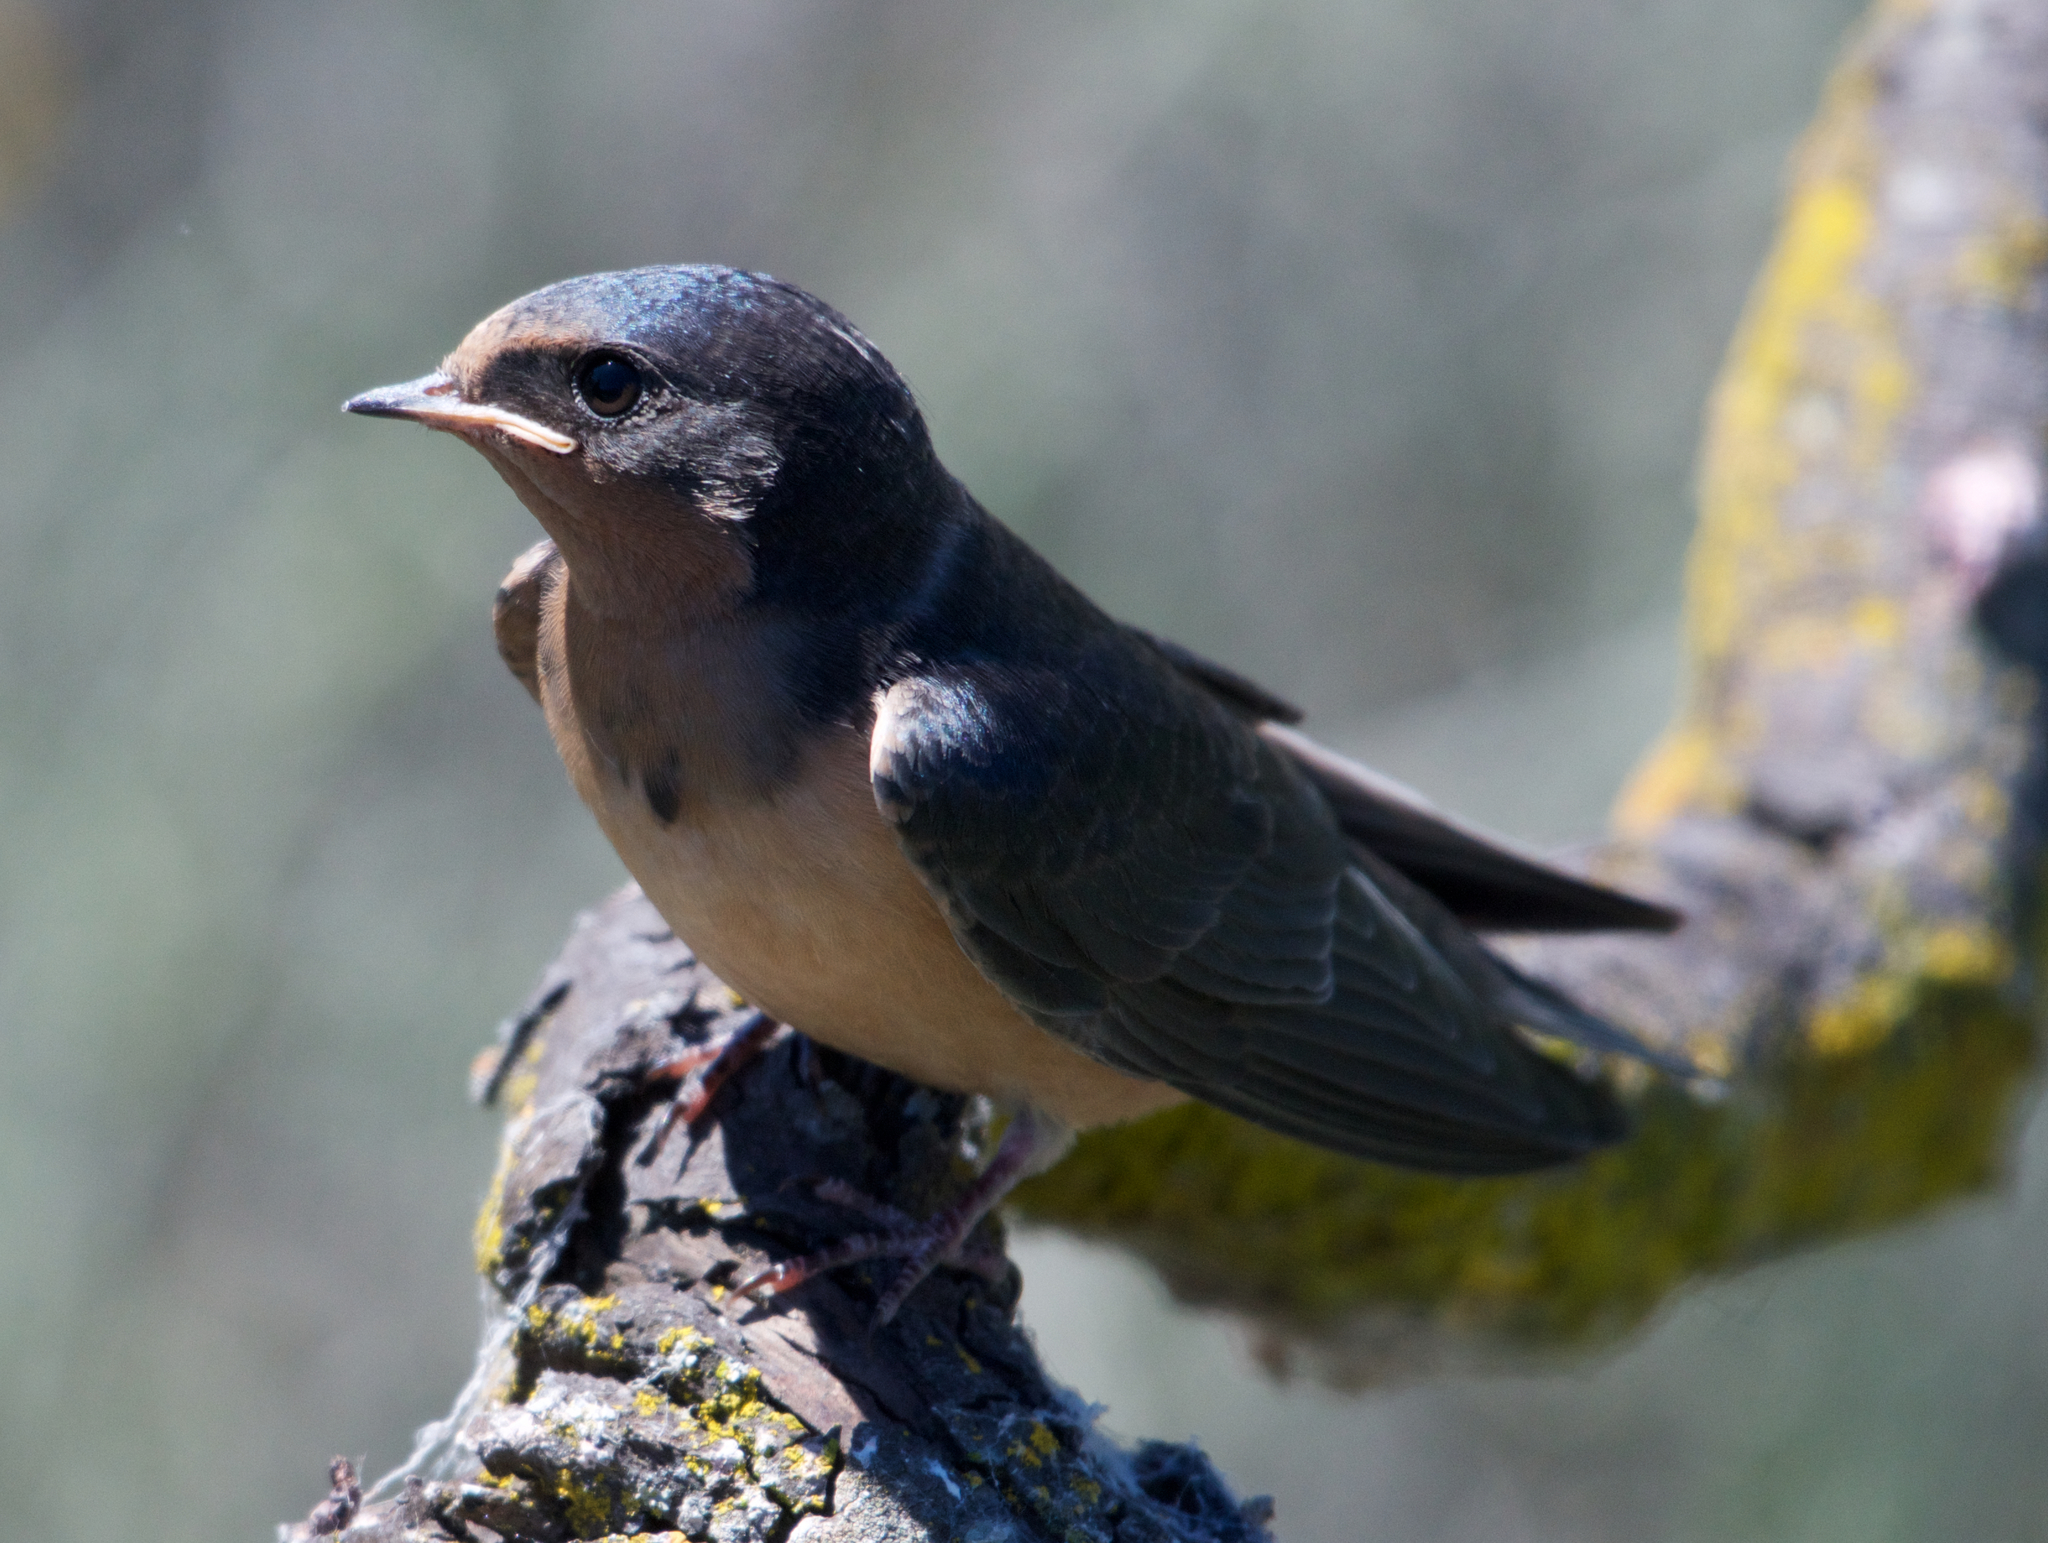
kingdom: Animalia
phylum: Chordata
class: Aves
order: Passeriformes
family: Hirundinidae
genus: Hirundo
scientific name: Hirundo rustica
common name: Barn swallow
